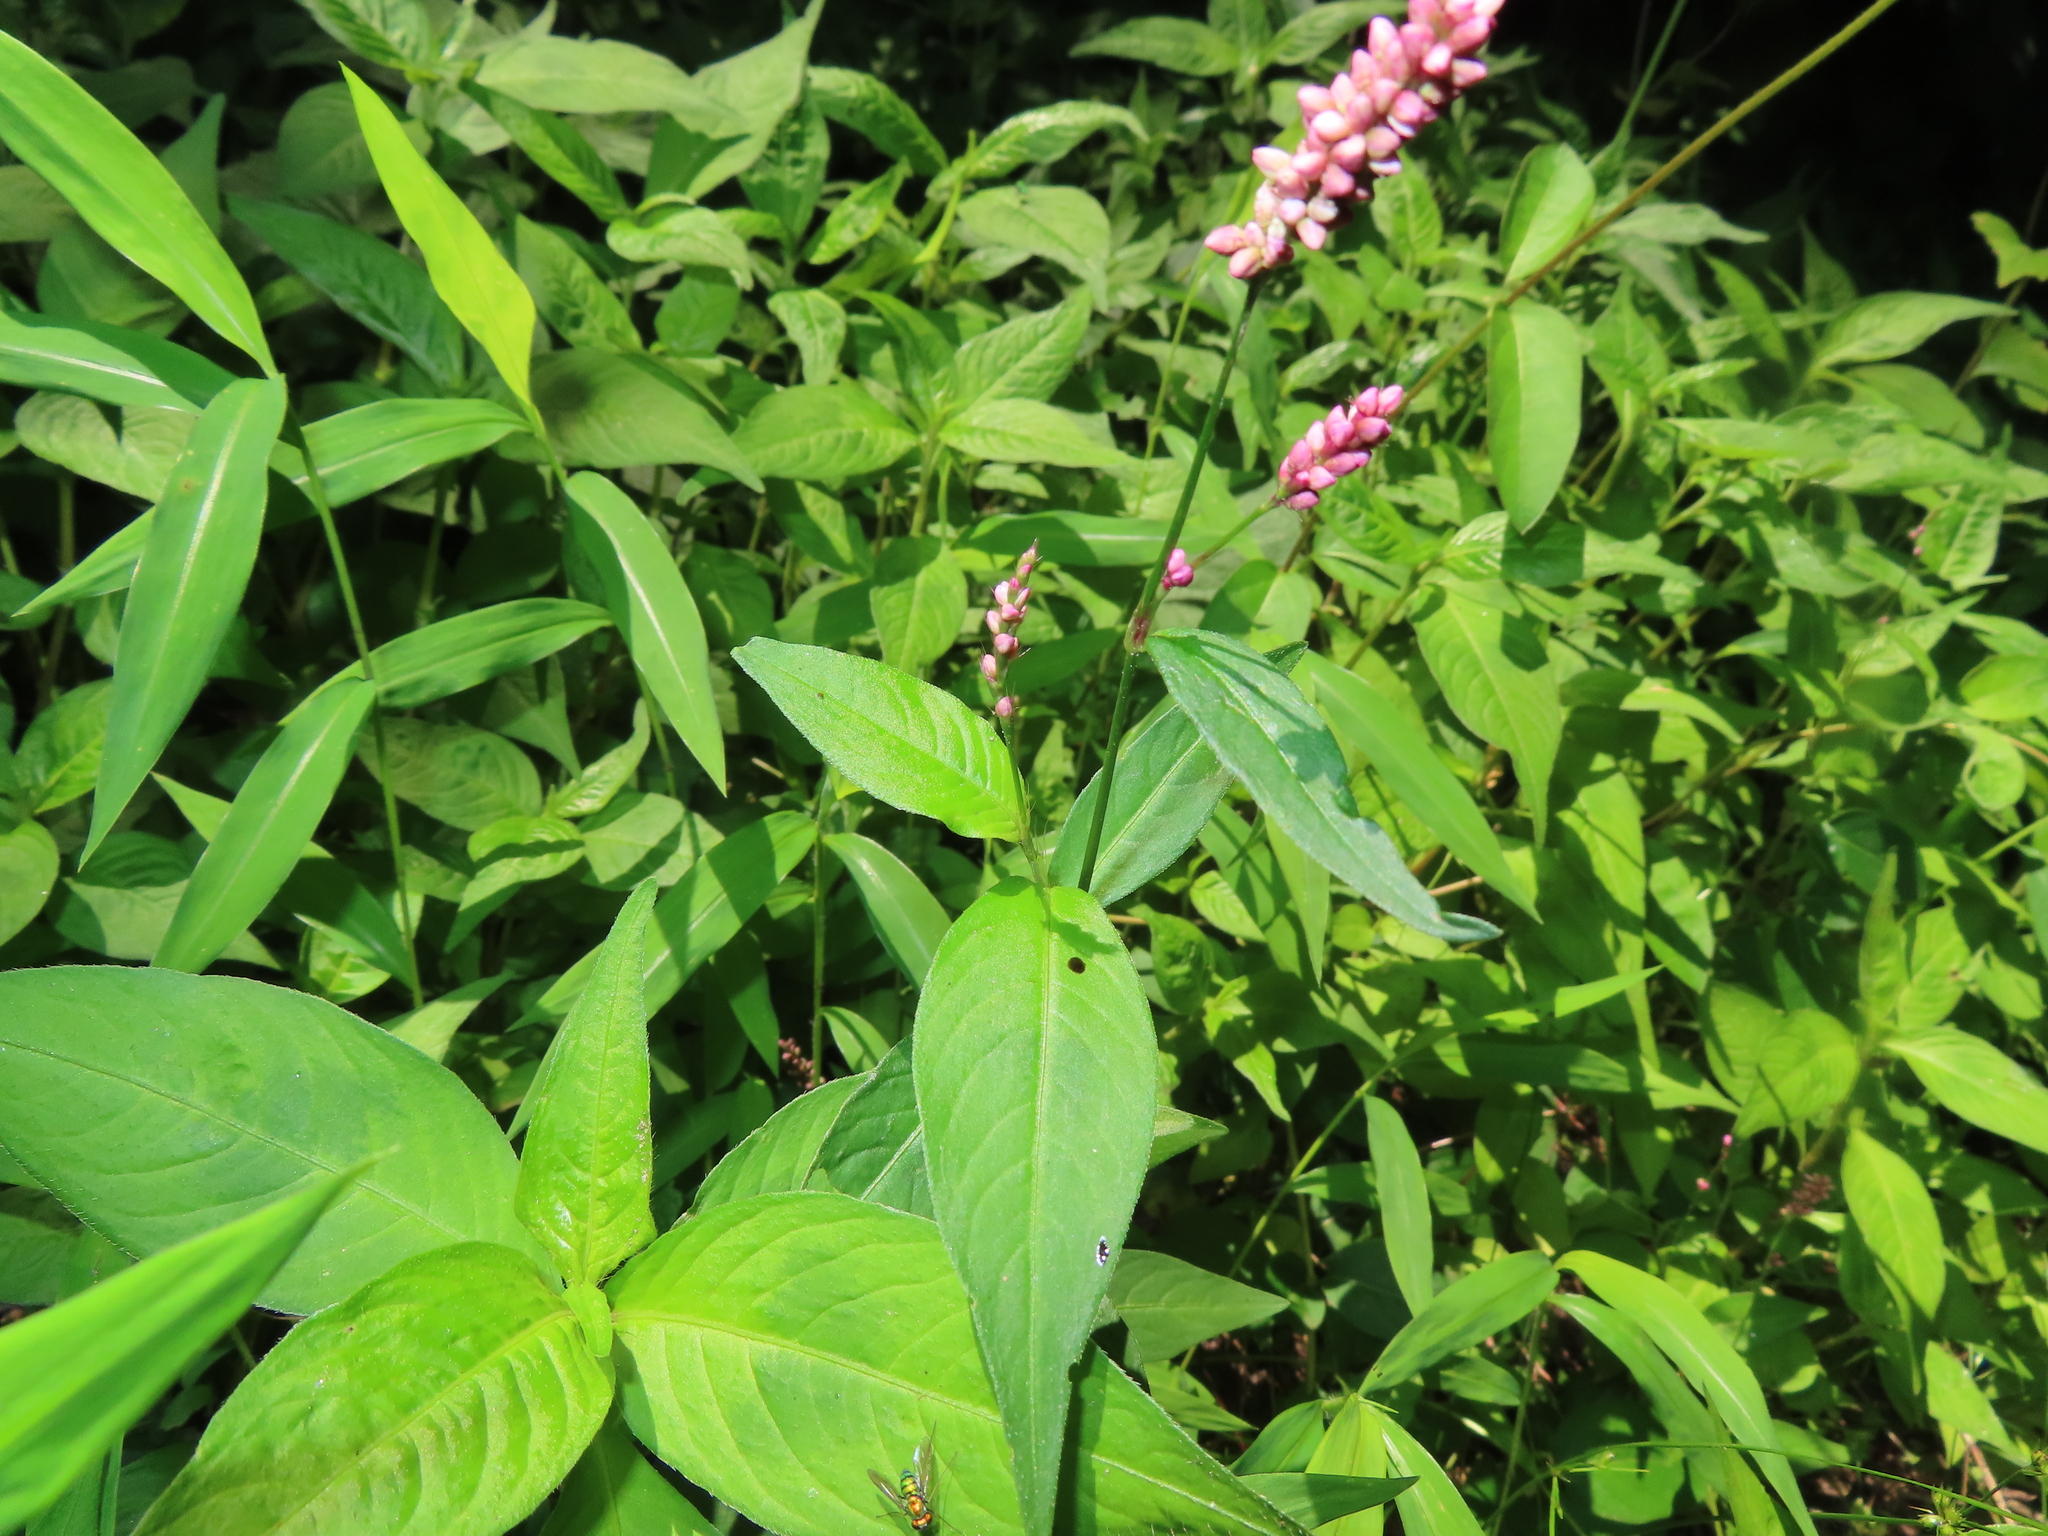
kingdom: Plantae
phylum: Tracheophyta
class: Magnoliopsida
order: Caryophyllales
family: Polygonaceae
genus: Persicaria
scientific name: Persicaria longiseta
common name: Bristly lady's-thumb
